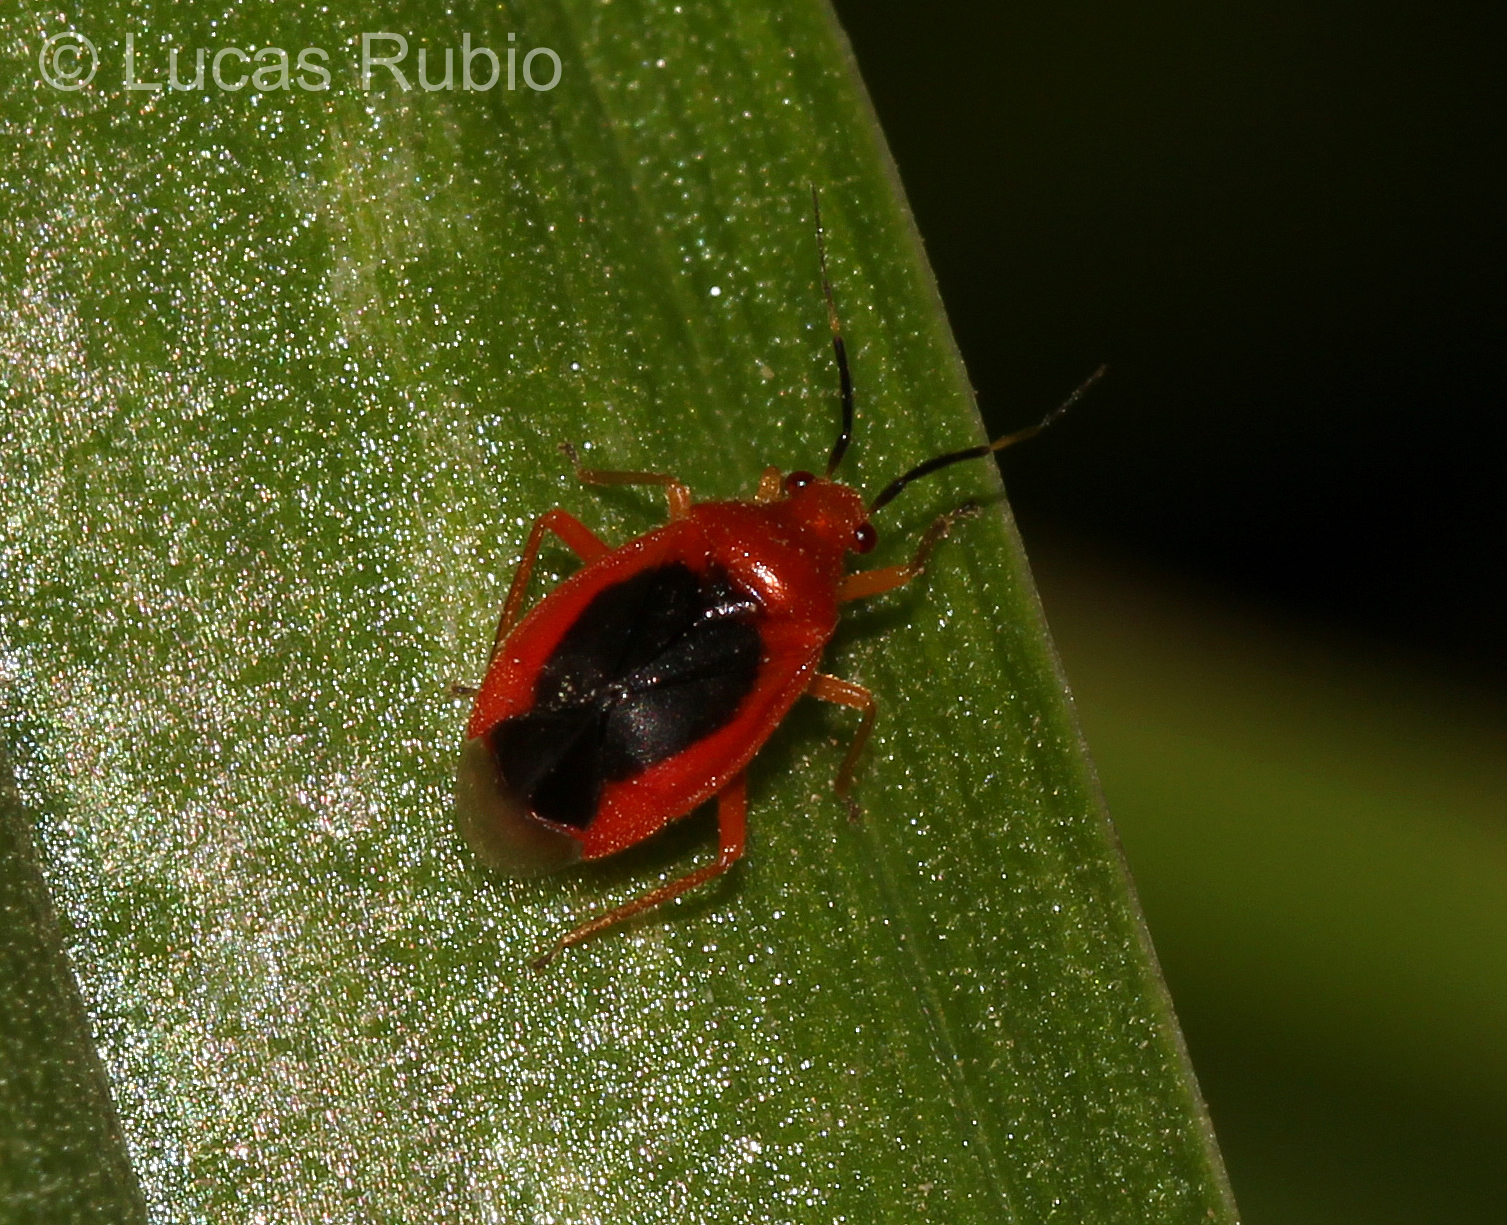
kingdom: Animalia
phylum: Arthropoda
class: Insecta
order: Hemiptera
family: Miridae
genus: Tenthecoris
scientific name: Tenthecoris bicolor
